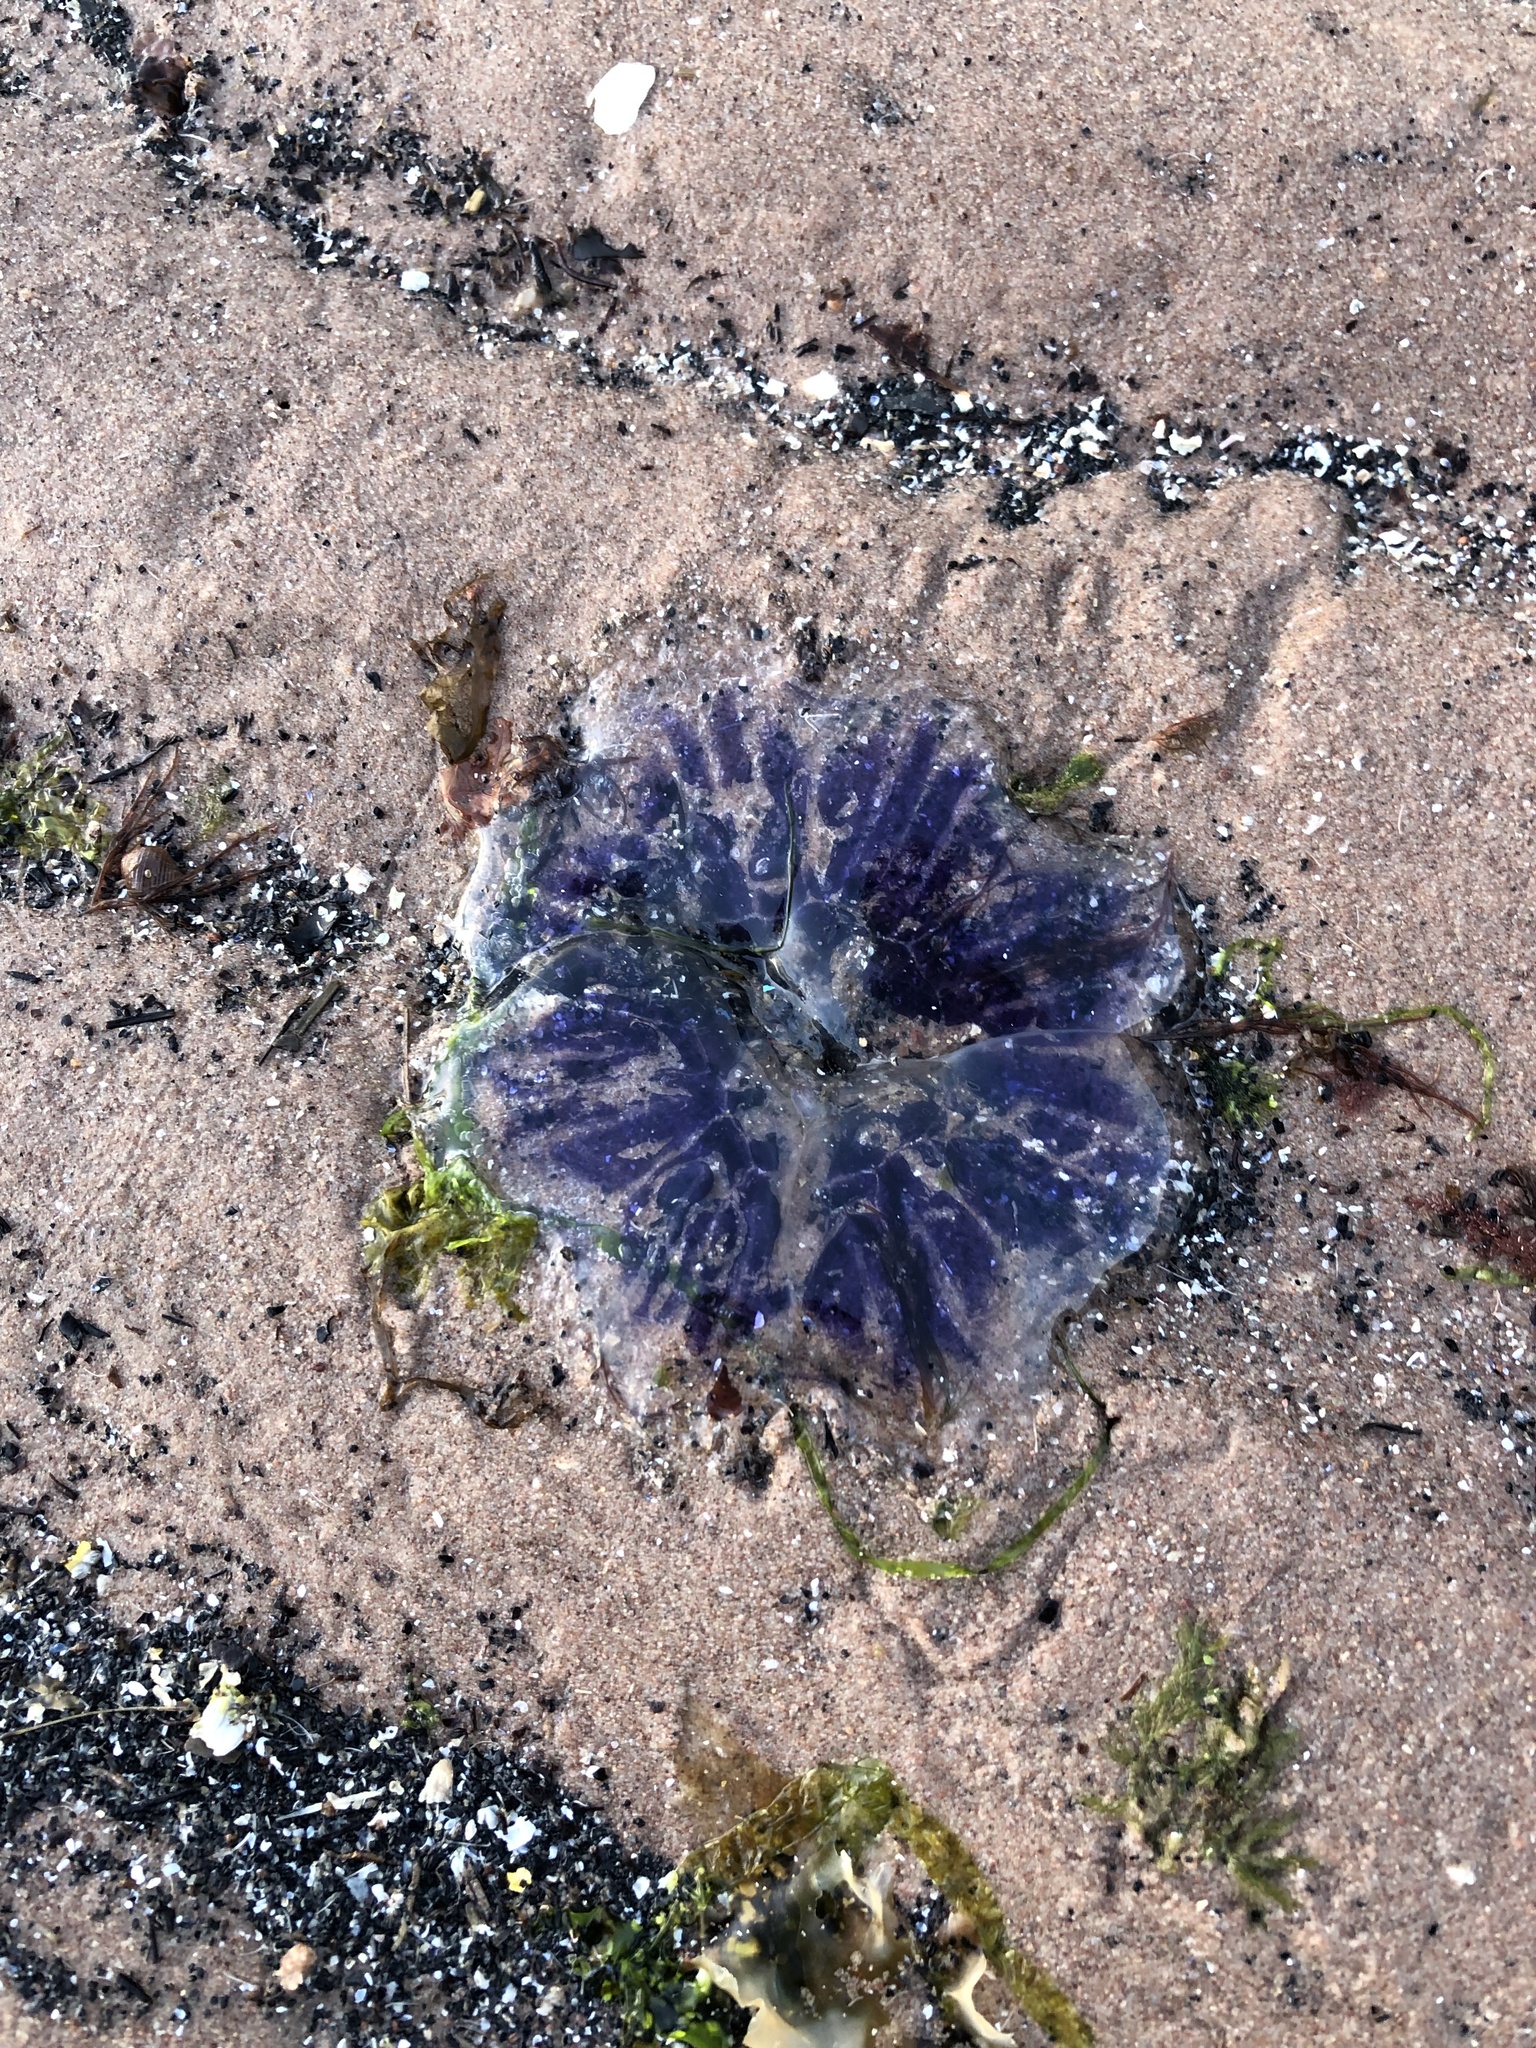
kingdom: Animalia
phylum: Cnidaria
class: Scyphozoa
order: Semaeostomeae
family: Cyaneidae
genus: Cyanea
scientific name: Cyanea lamarckii
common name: Blue jellyfish
